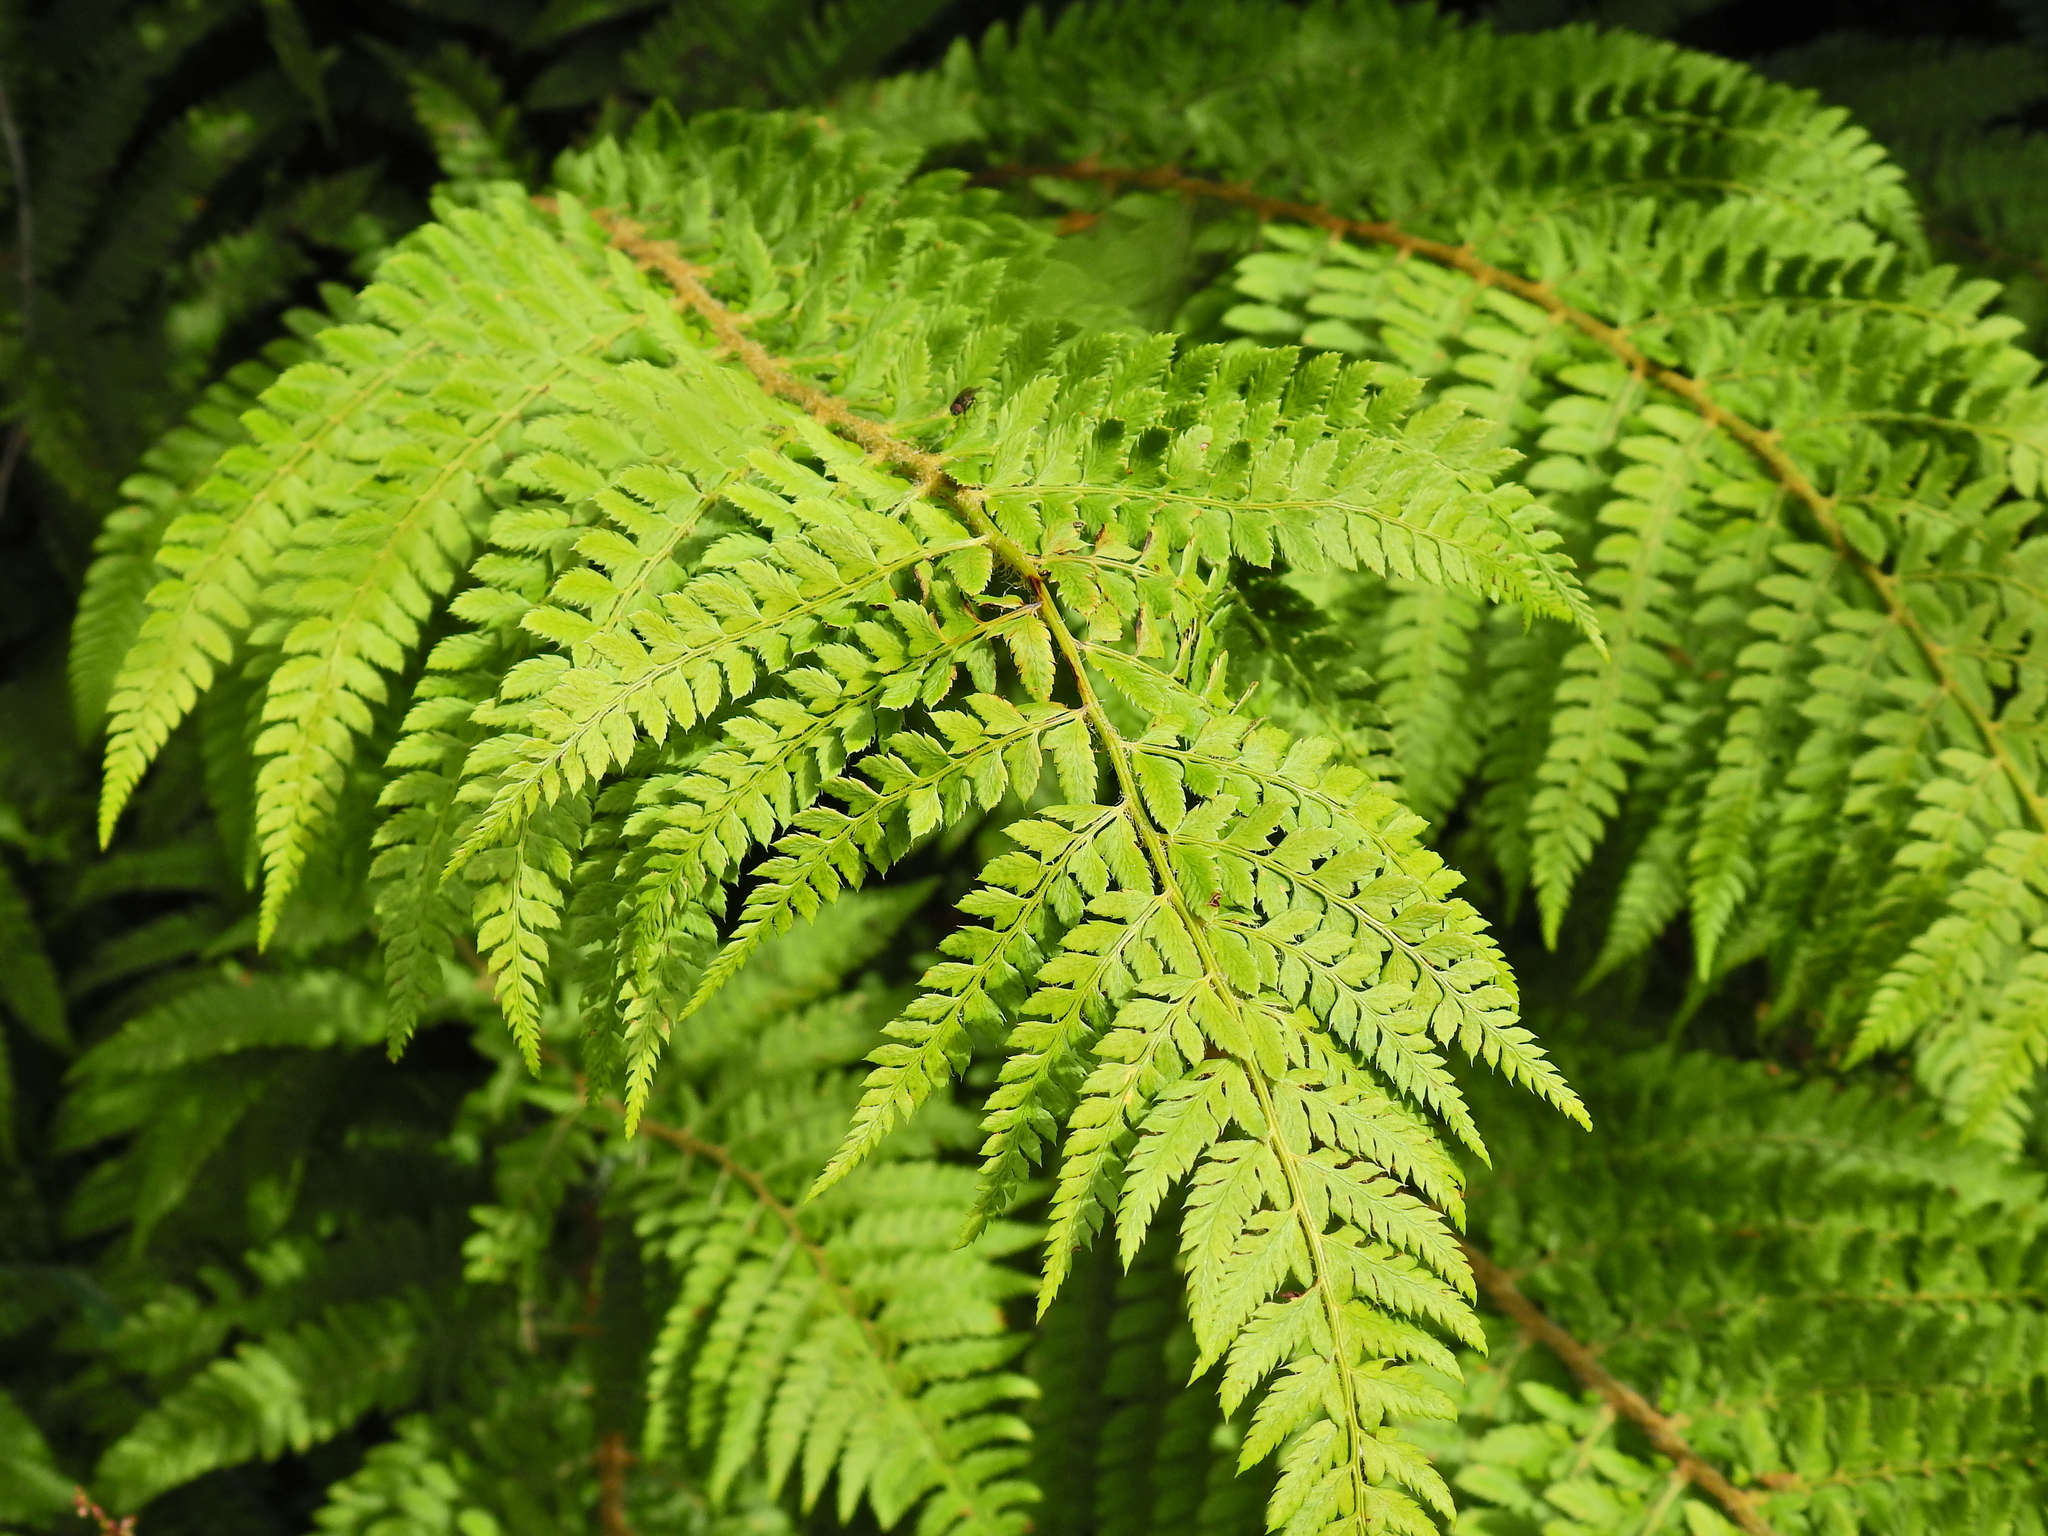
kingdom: Plantae
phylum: Tracheophyta
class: Polypodiopsida
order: Polypodiales
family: Dryopteridaceae
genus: Polystichum
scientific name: Polystichum setiferum
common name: Soft shield-fern
